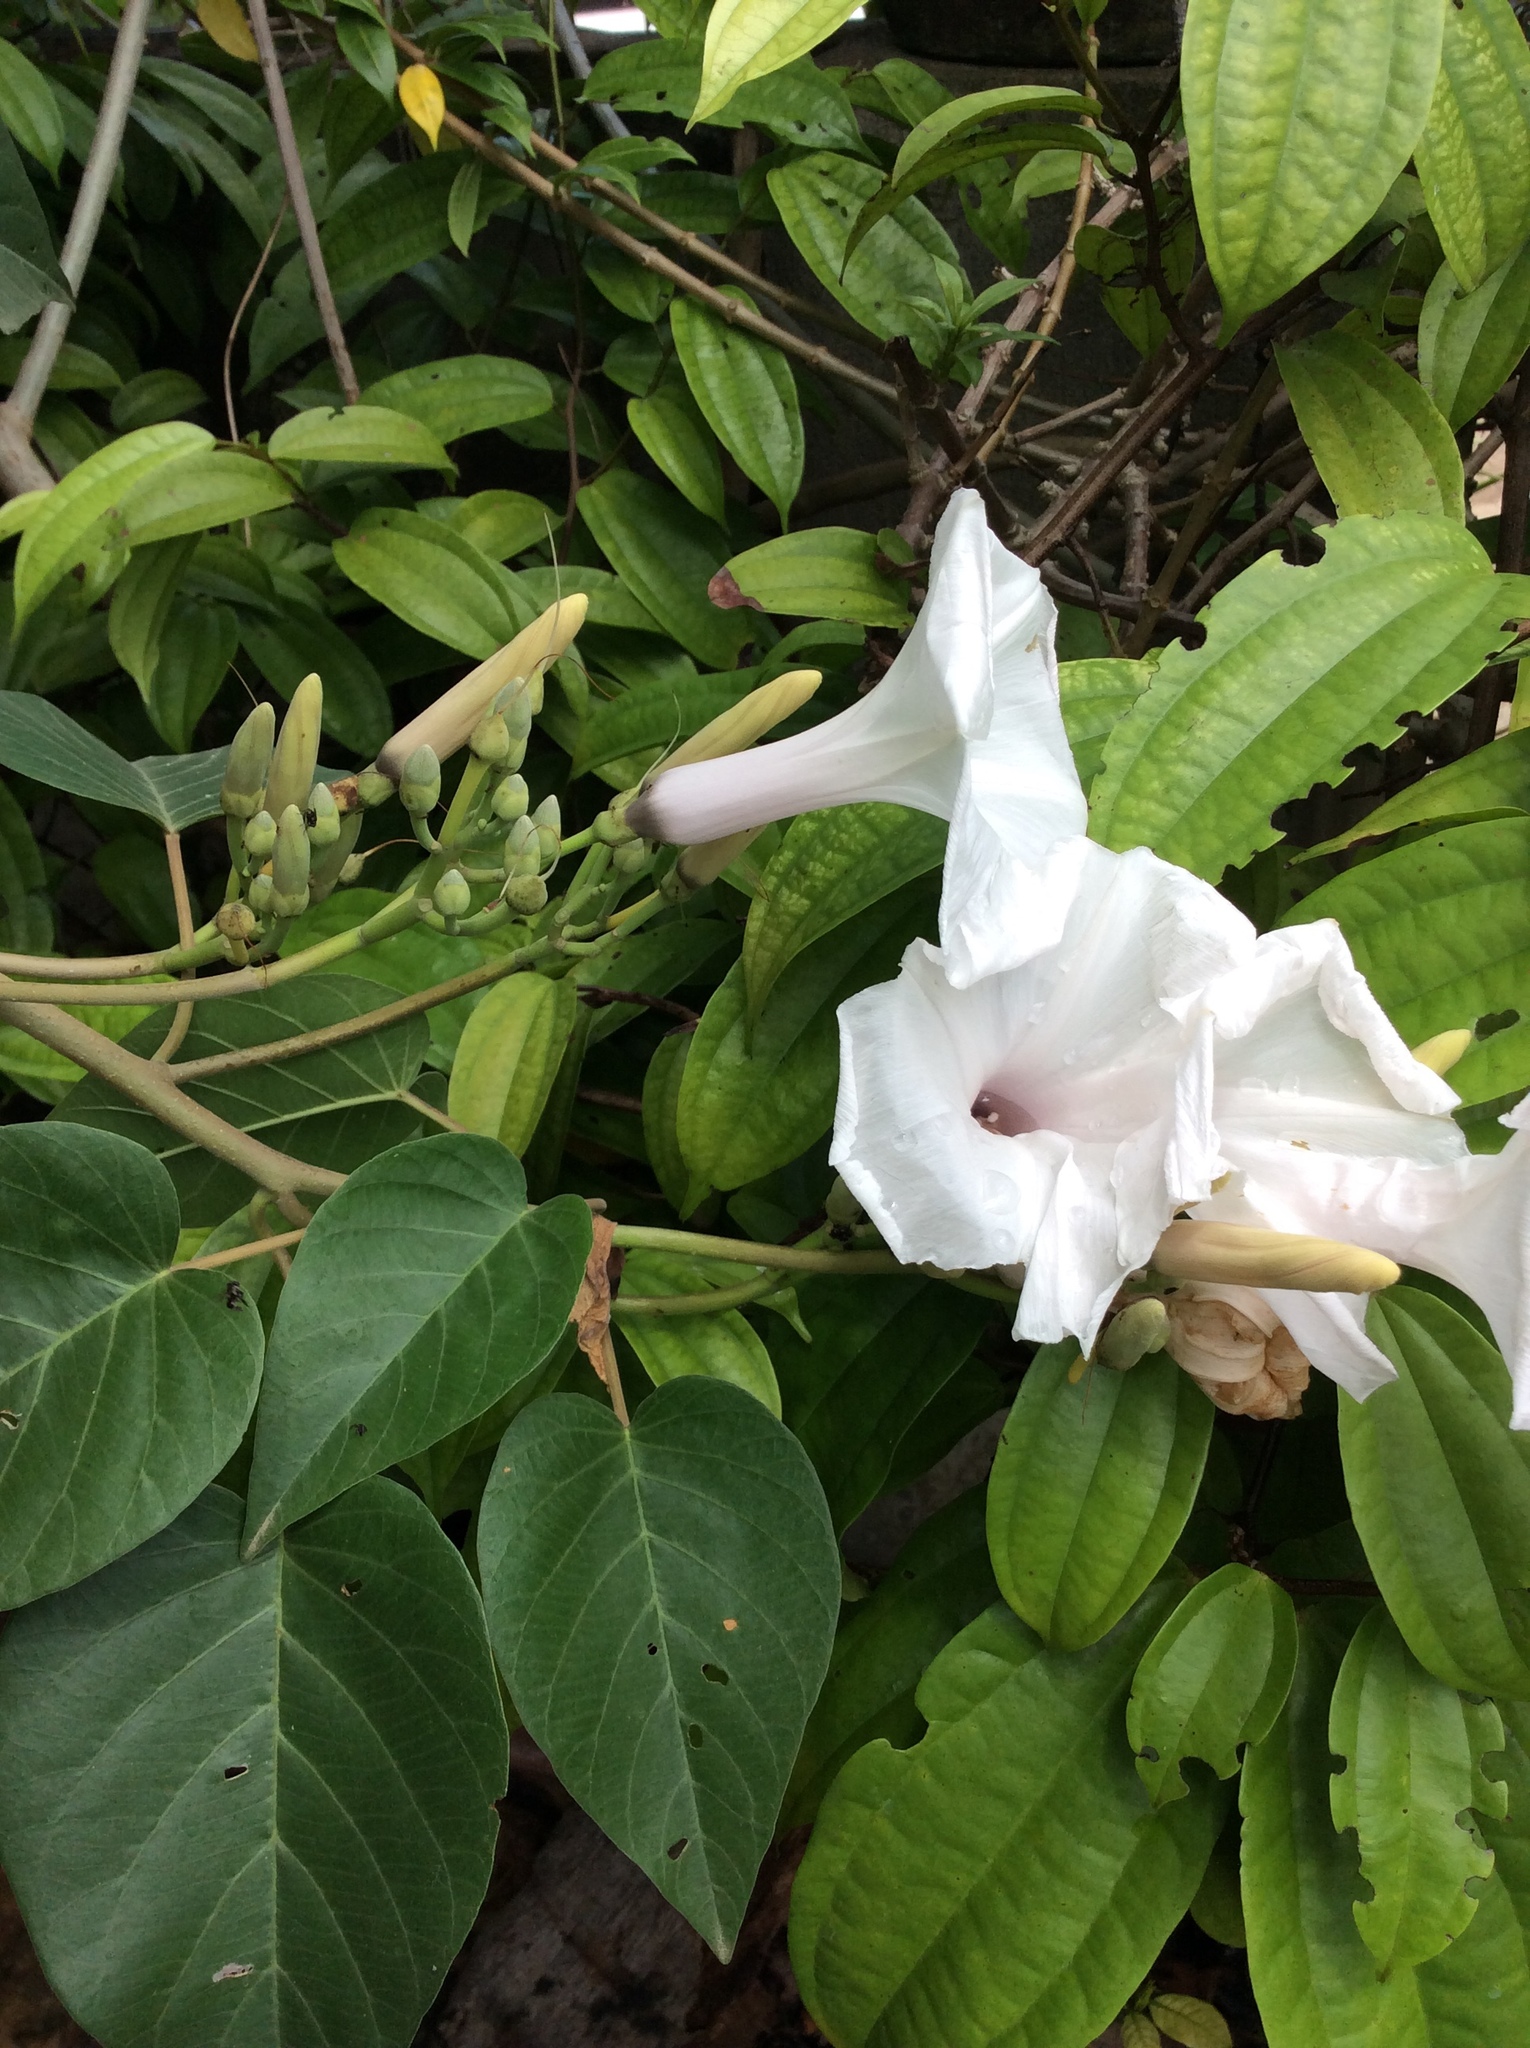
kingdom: Plantae
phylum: Tracheophyta
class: Magnoliopsida
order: Solanales
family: Convolvulaceae
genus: Ipomoea
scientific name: Ipomoea carnea
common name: Morning-glory
